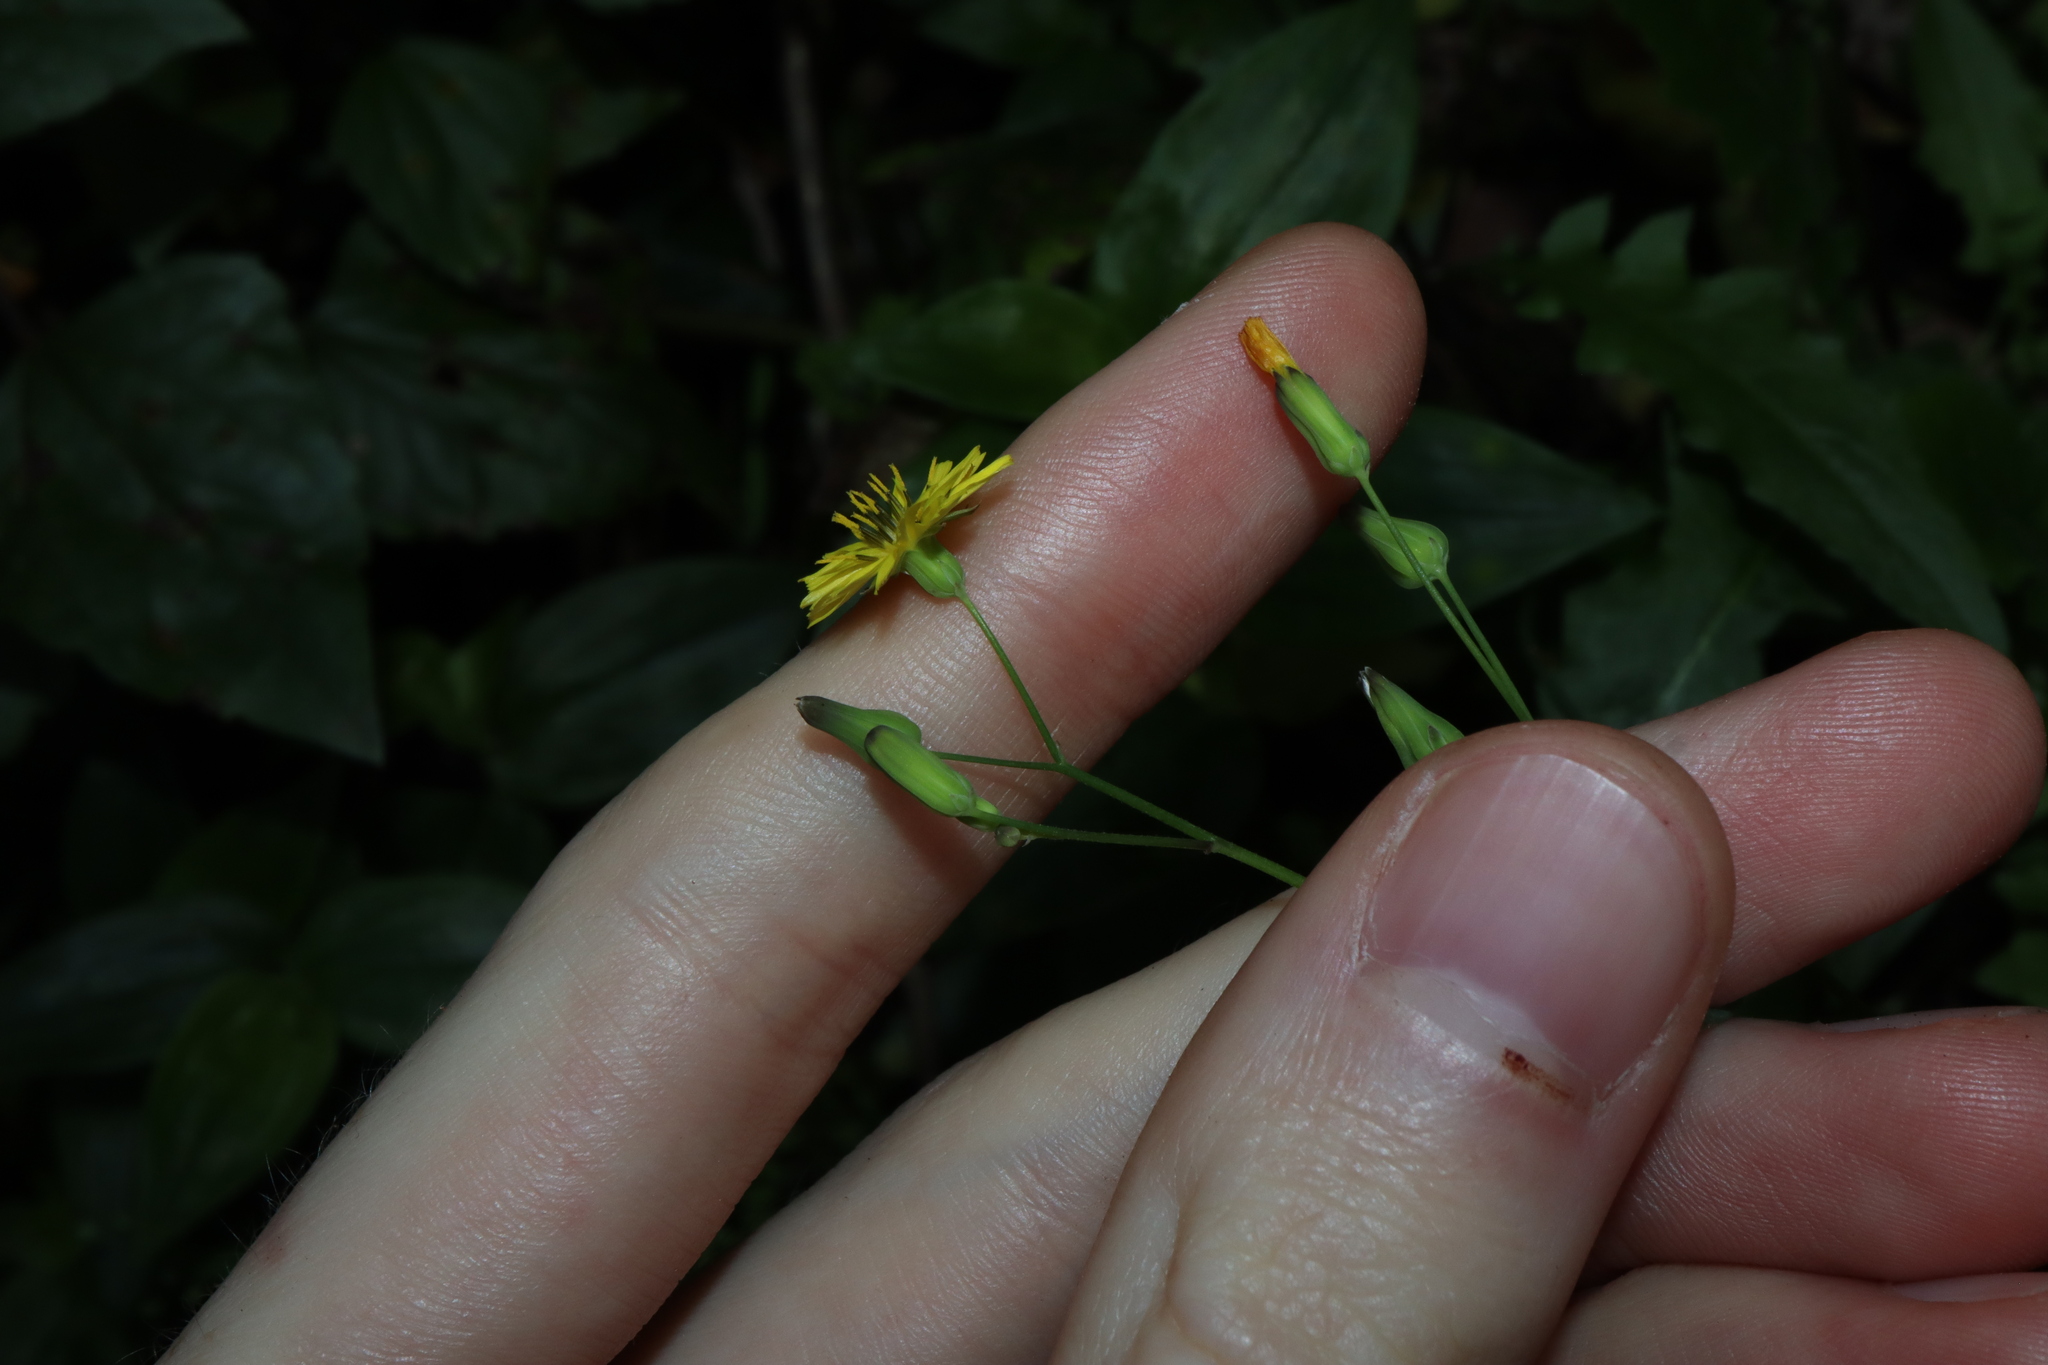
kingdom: Plantae
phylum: Tracheophyta
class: Magnoliopsida
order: Asterales
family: Asteraceae
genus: Youngia
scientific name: Youngia japonica
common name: Oriental false hawksbeard
